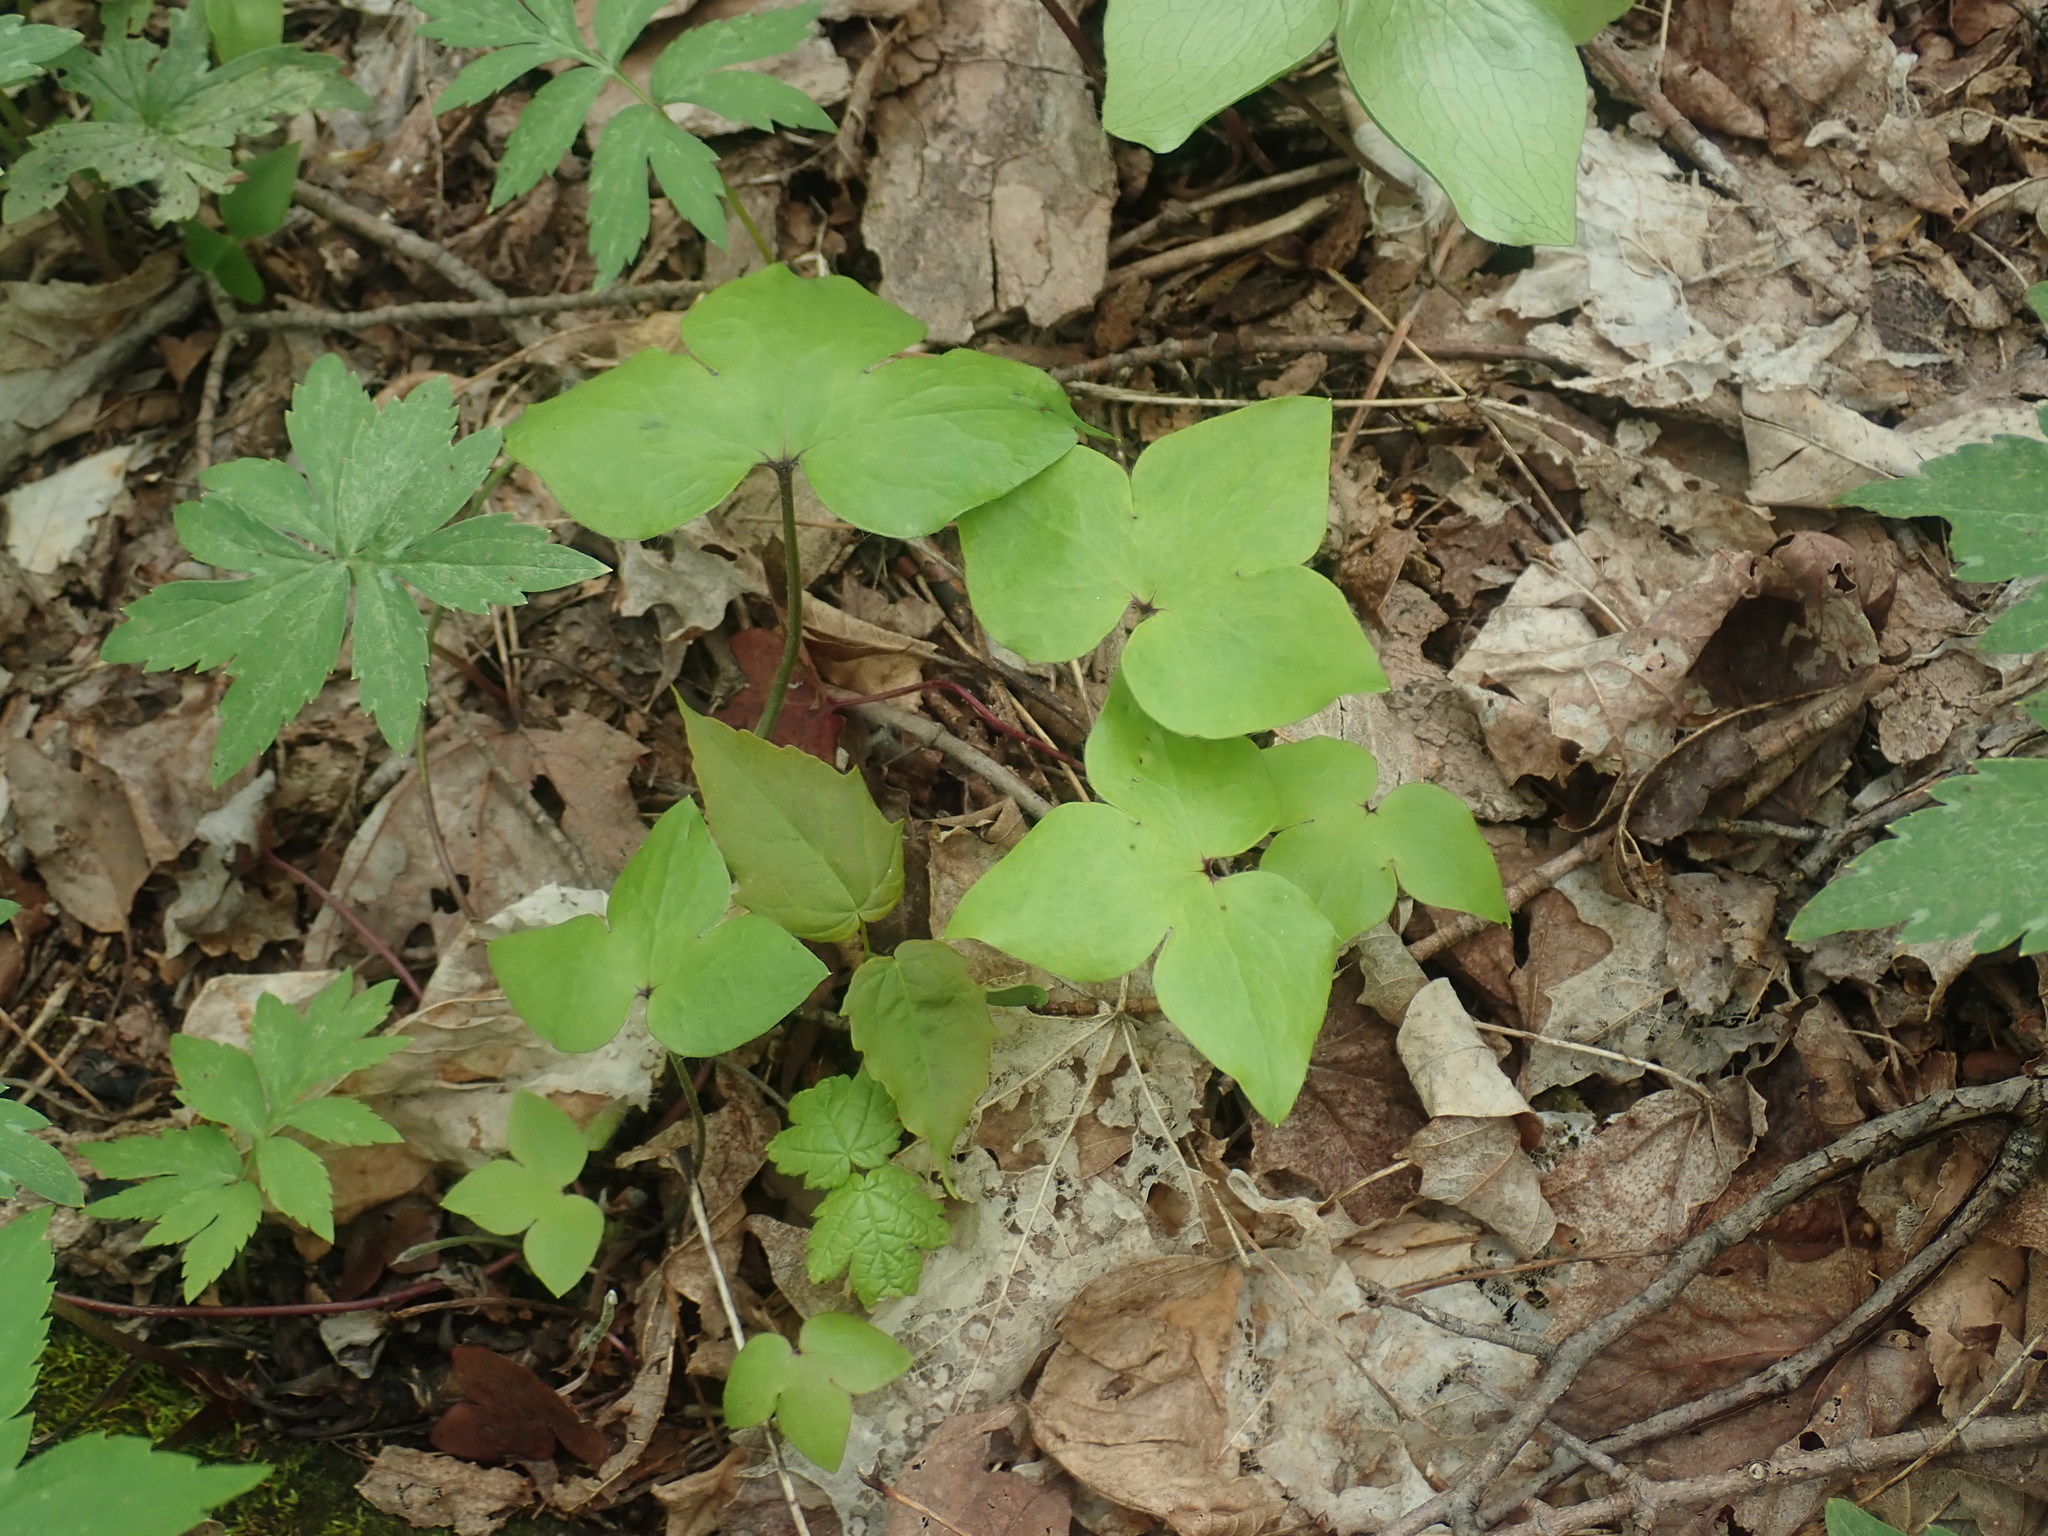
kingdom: Plantae
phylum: Tracheophyta
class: Magnoliopsida
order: Ranunculales
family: Ranunculaceae
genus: Hepatica
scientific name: Hepatica acutiloba
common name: Sharp-lobed hepatica
